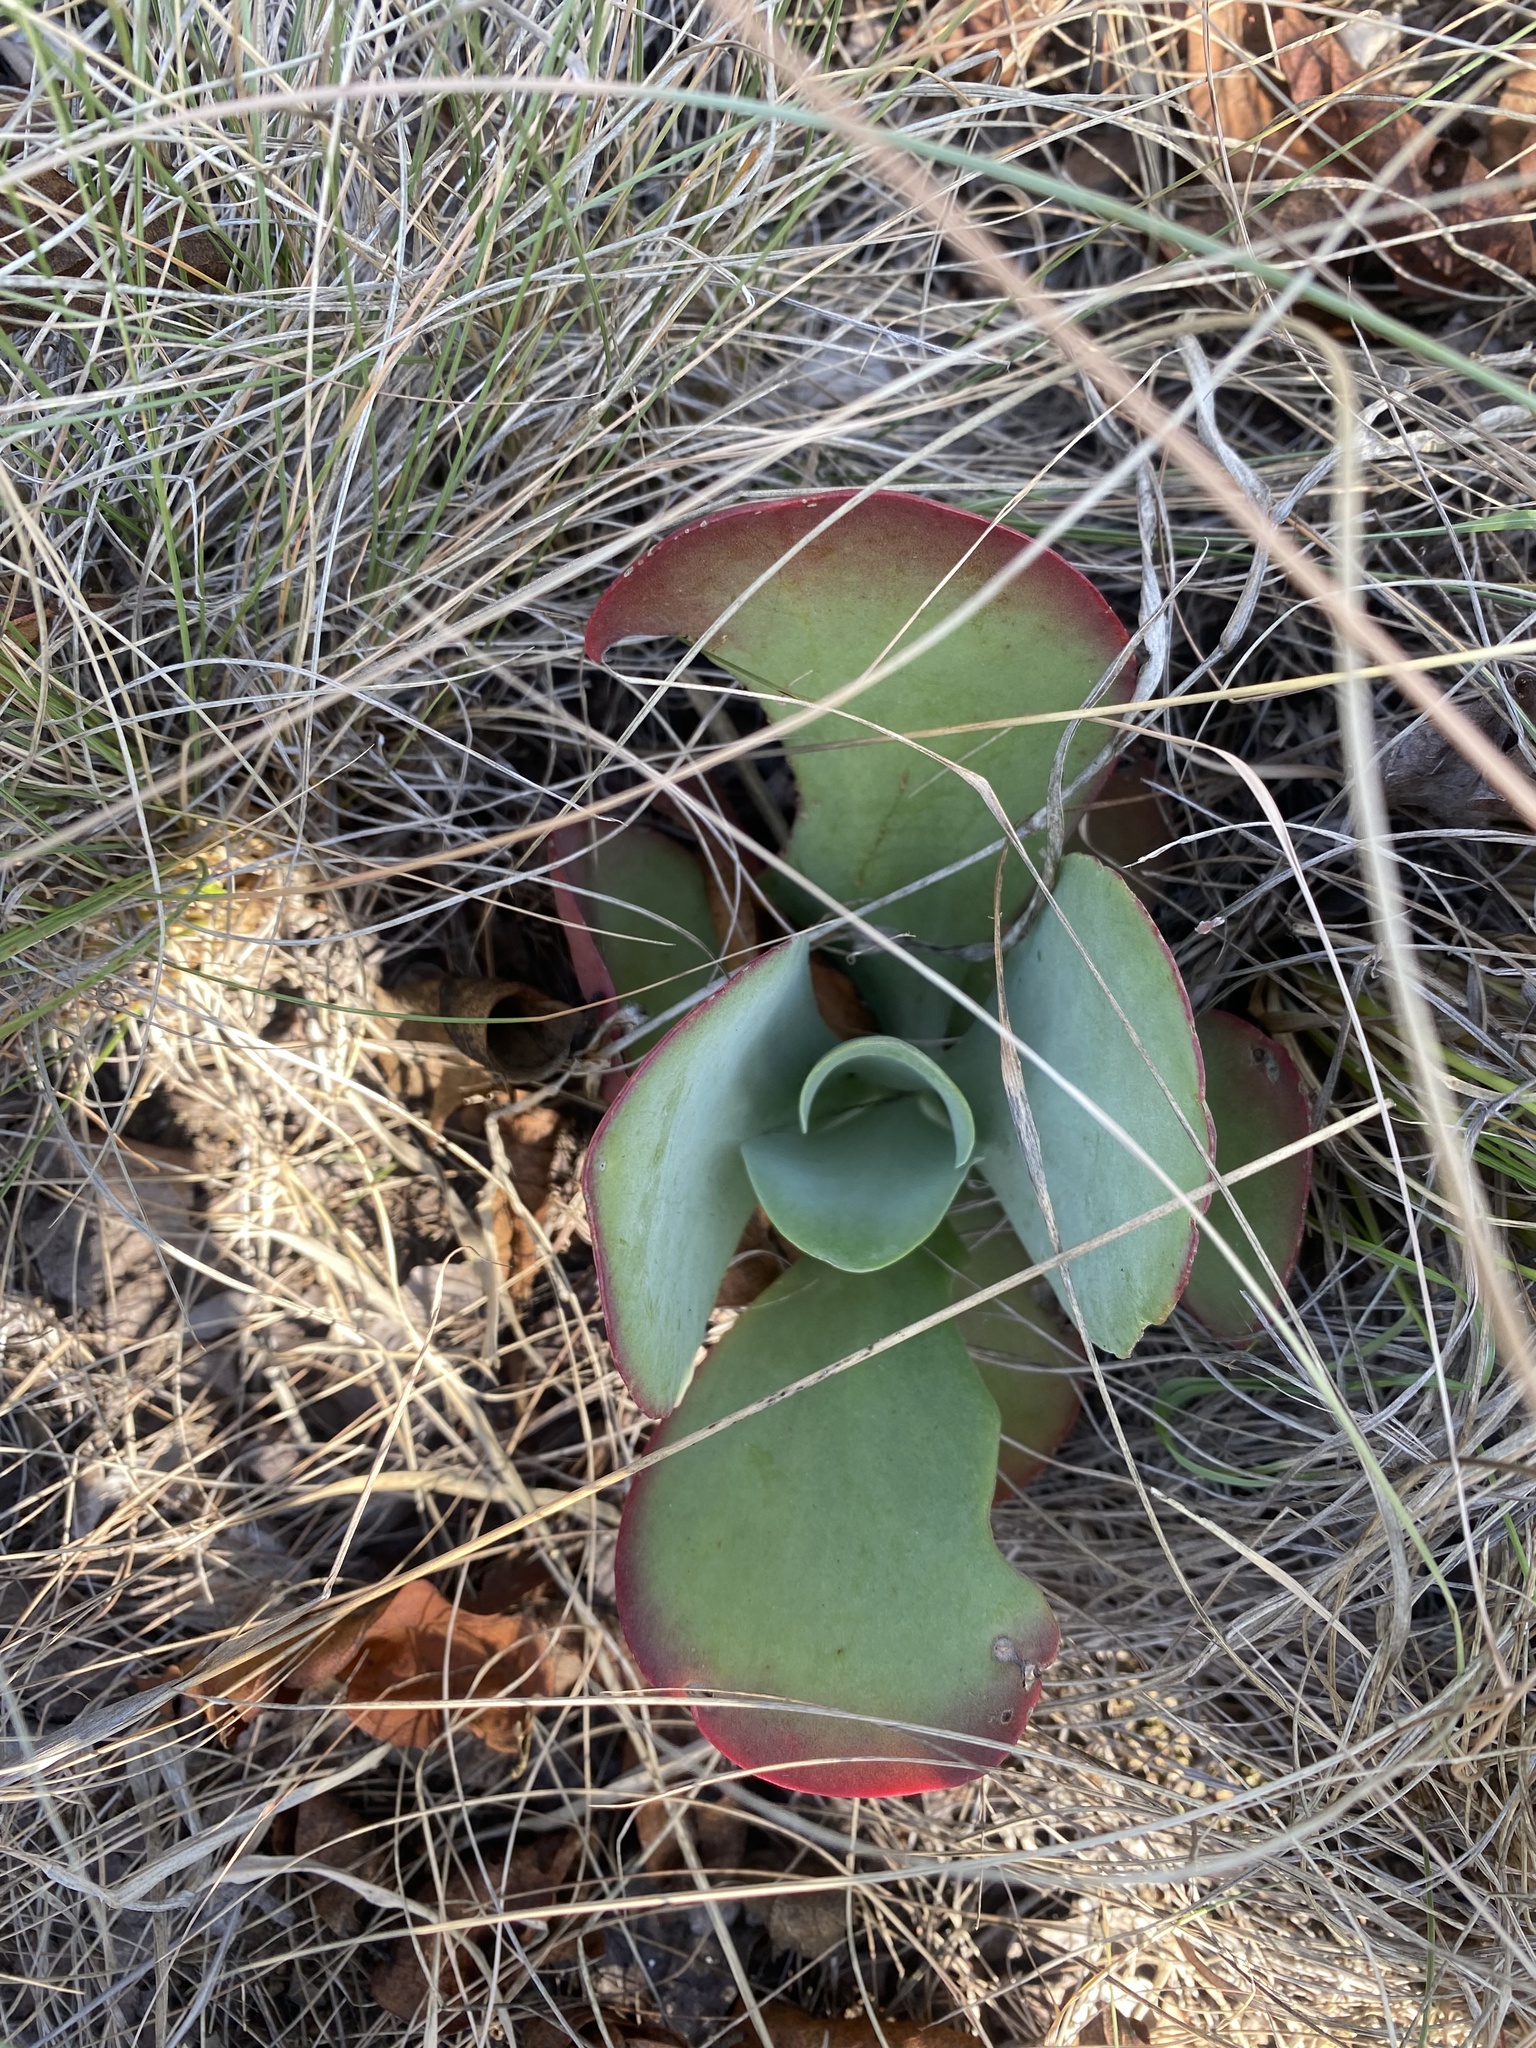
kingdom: Plantae
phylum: Tracheophyta
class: Magnoliopsida
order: Saxifragales
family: Crassulaceae
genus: Kalanchoe
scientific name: Kalanchoe paniculata
